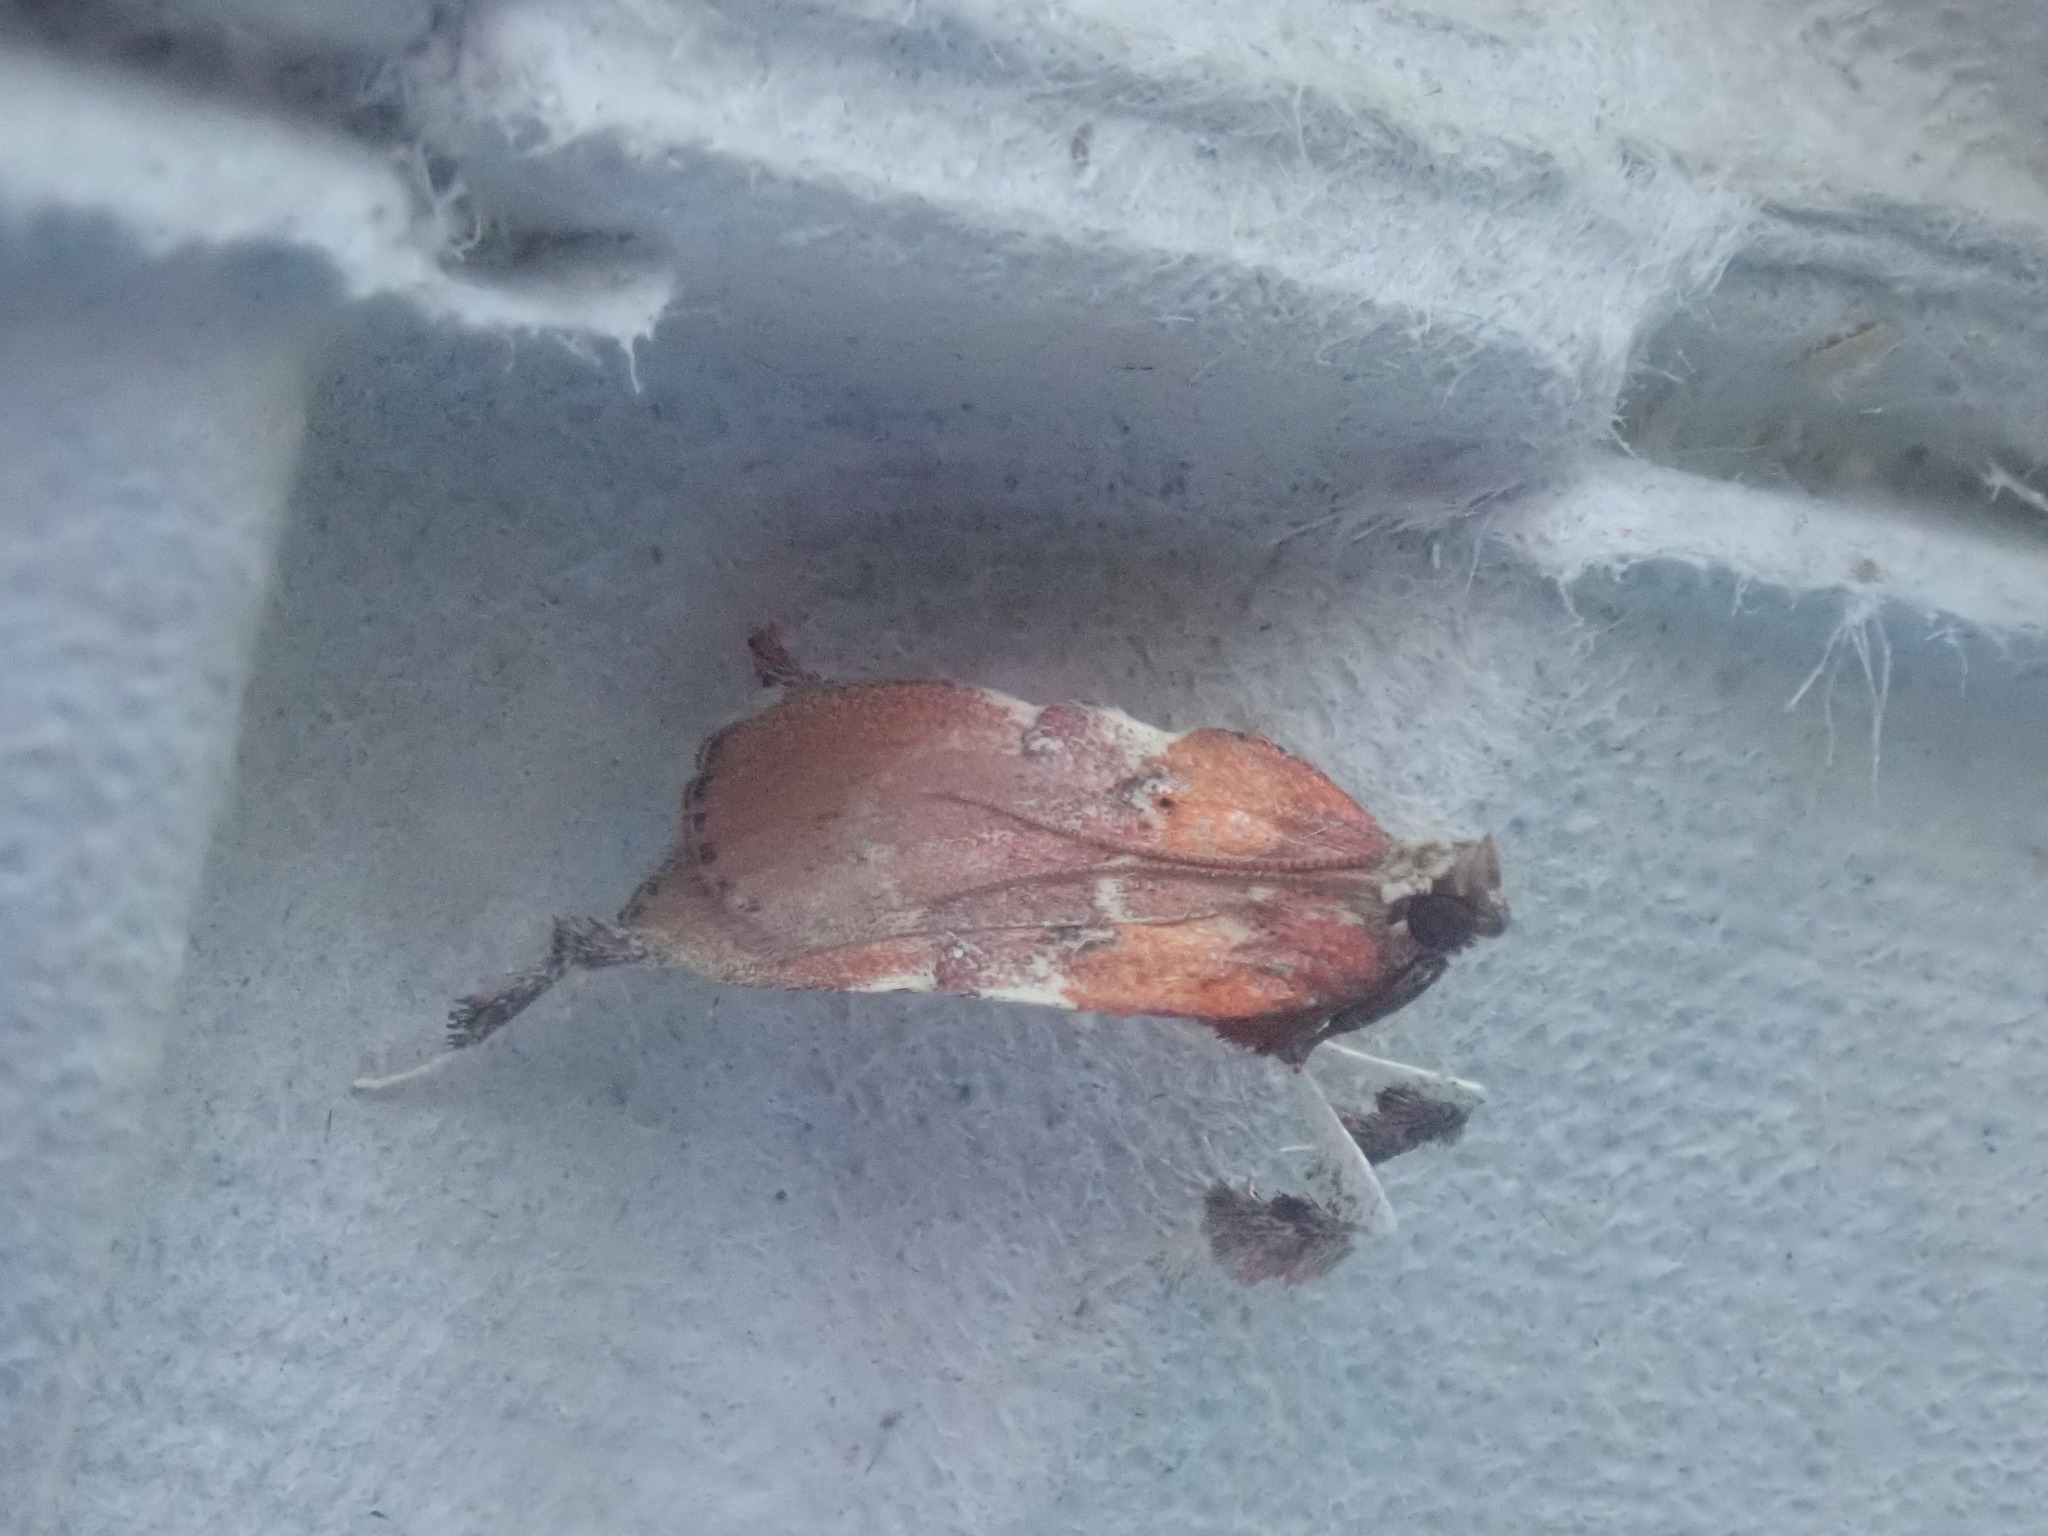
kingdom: Animalia
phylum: Arthropoda
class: Insecta
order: Lepidoptera
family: Pyralidae
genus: Galasa
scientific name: Galasa nigrinodis
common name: Boxwood leaftier moth
